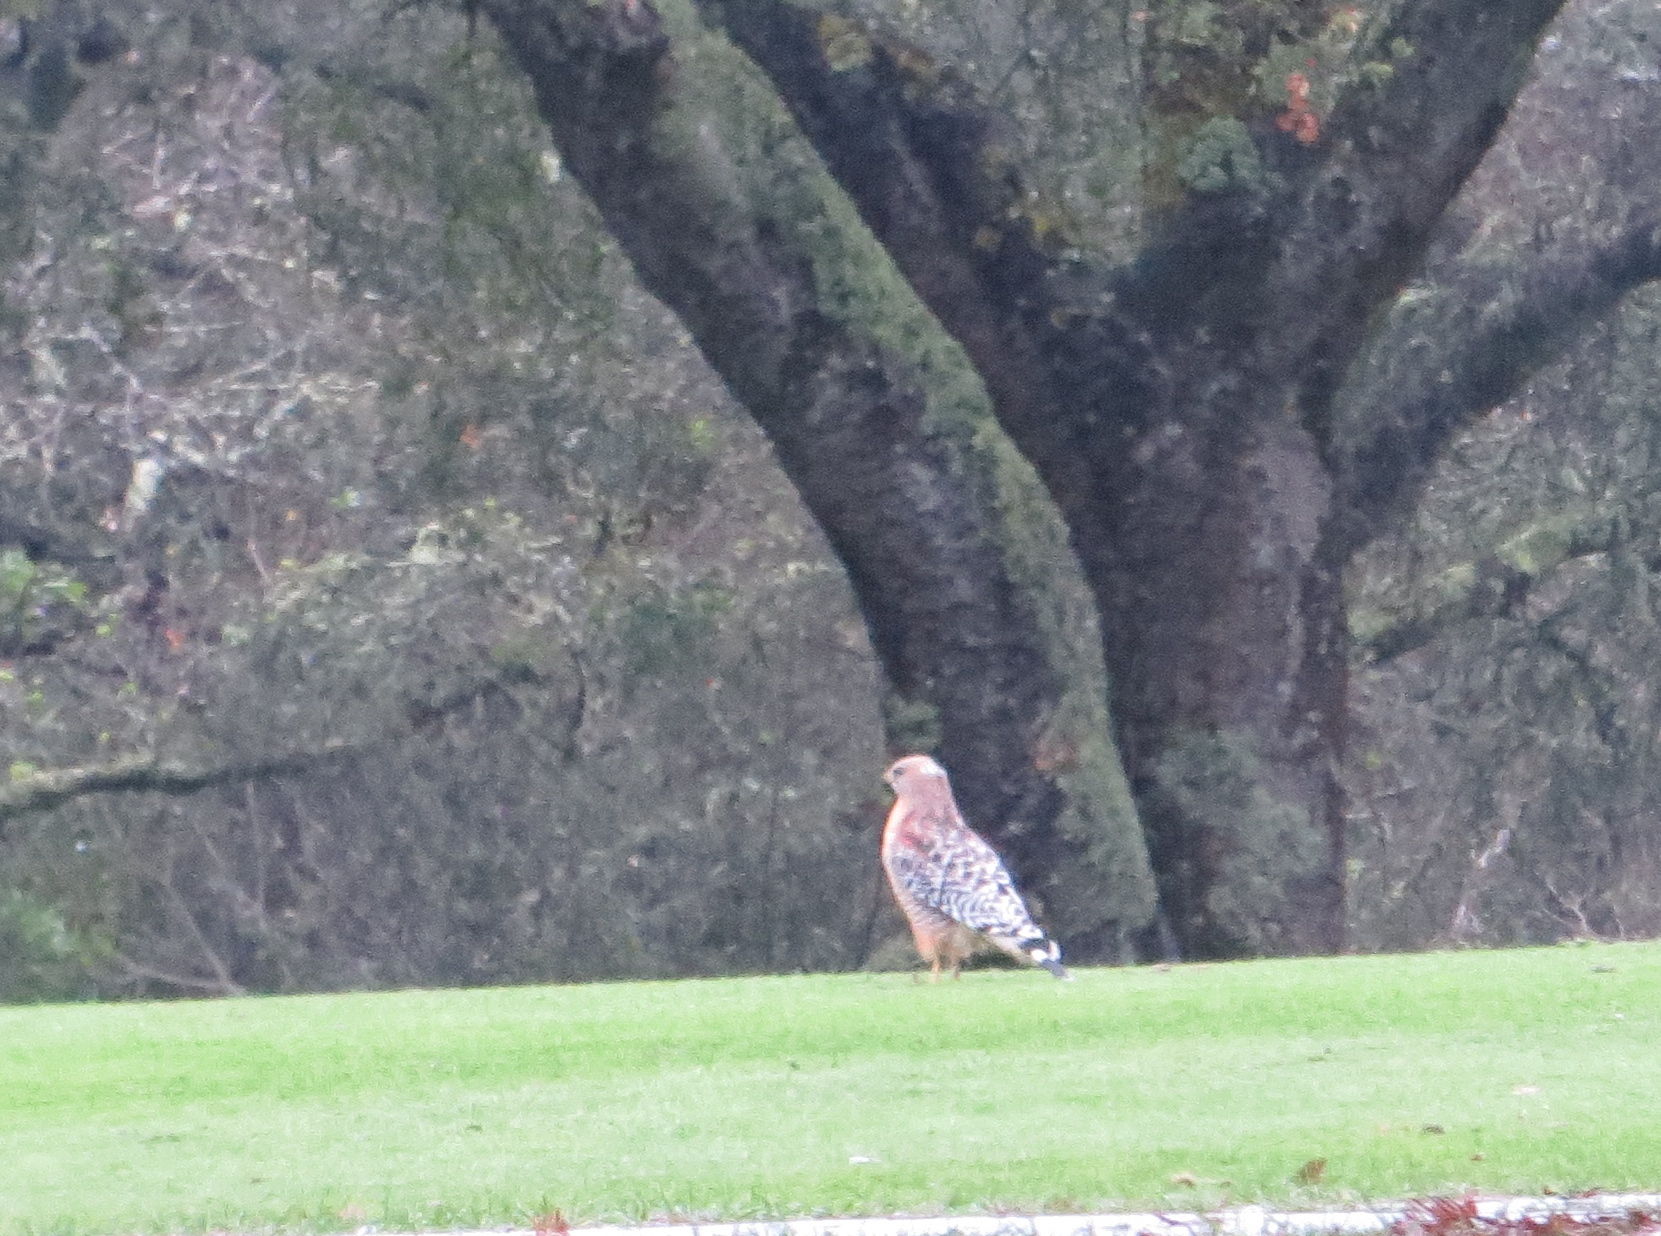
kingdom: Animalia
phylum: Chordata
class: Aves
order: Accipitriformes
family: Accipitridae
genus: Buteo
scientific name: Buteo lineatus
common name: Red-shouldered hawk
